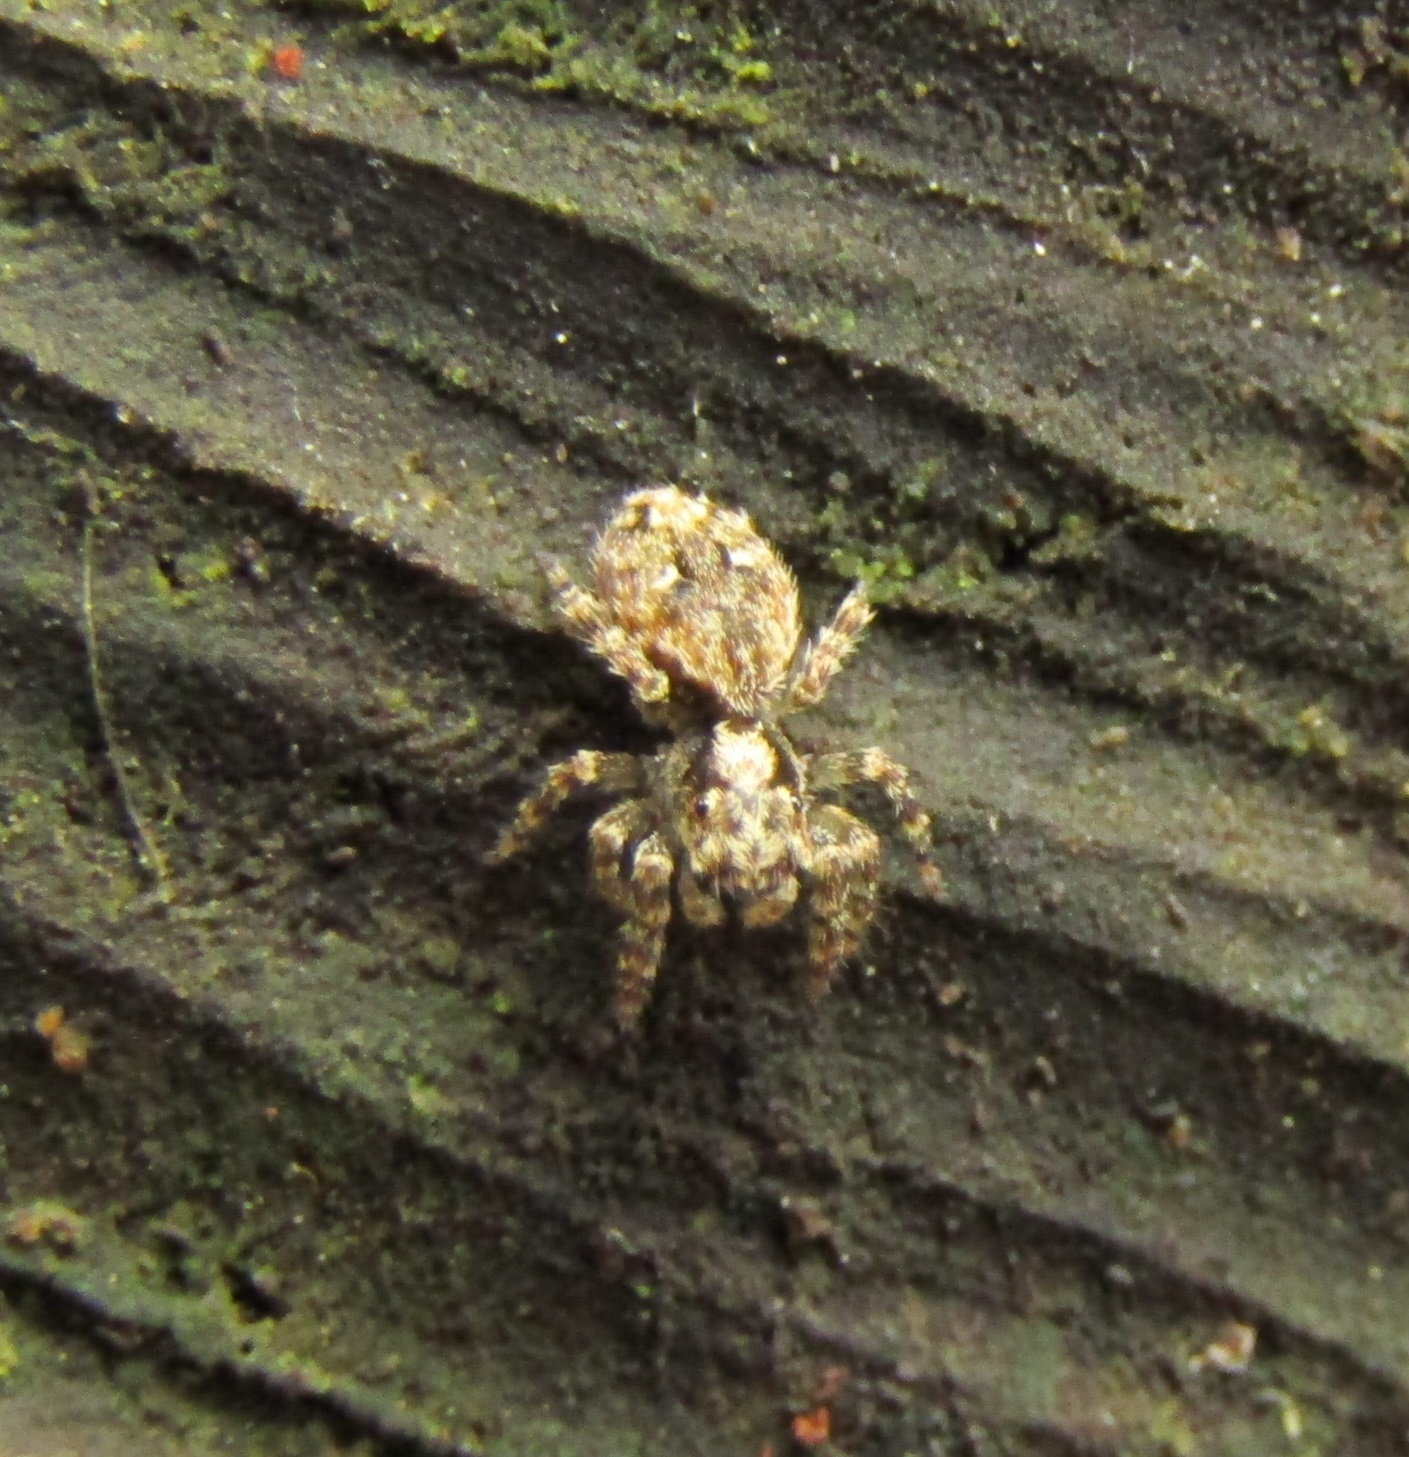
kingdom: Animalia
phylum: Arthropoda
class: Arachnida
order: Araneae
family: Salticidae
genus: Hinewaia
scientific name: Hinewaia embolica
